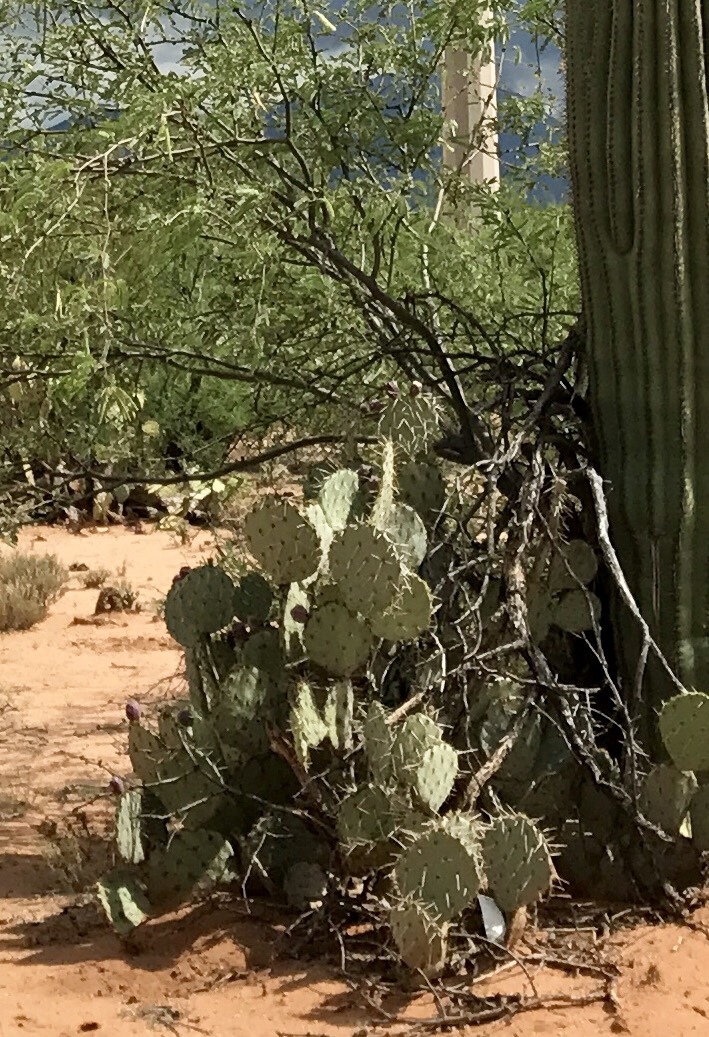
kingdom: Plantae
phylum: Tracheophyta
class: Magnoliopsida
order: Caryophyllales
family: Cactaceae
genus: Opuntia
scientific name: Opuntia engelmannii
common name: Cactus-apple
